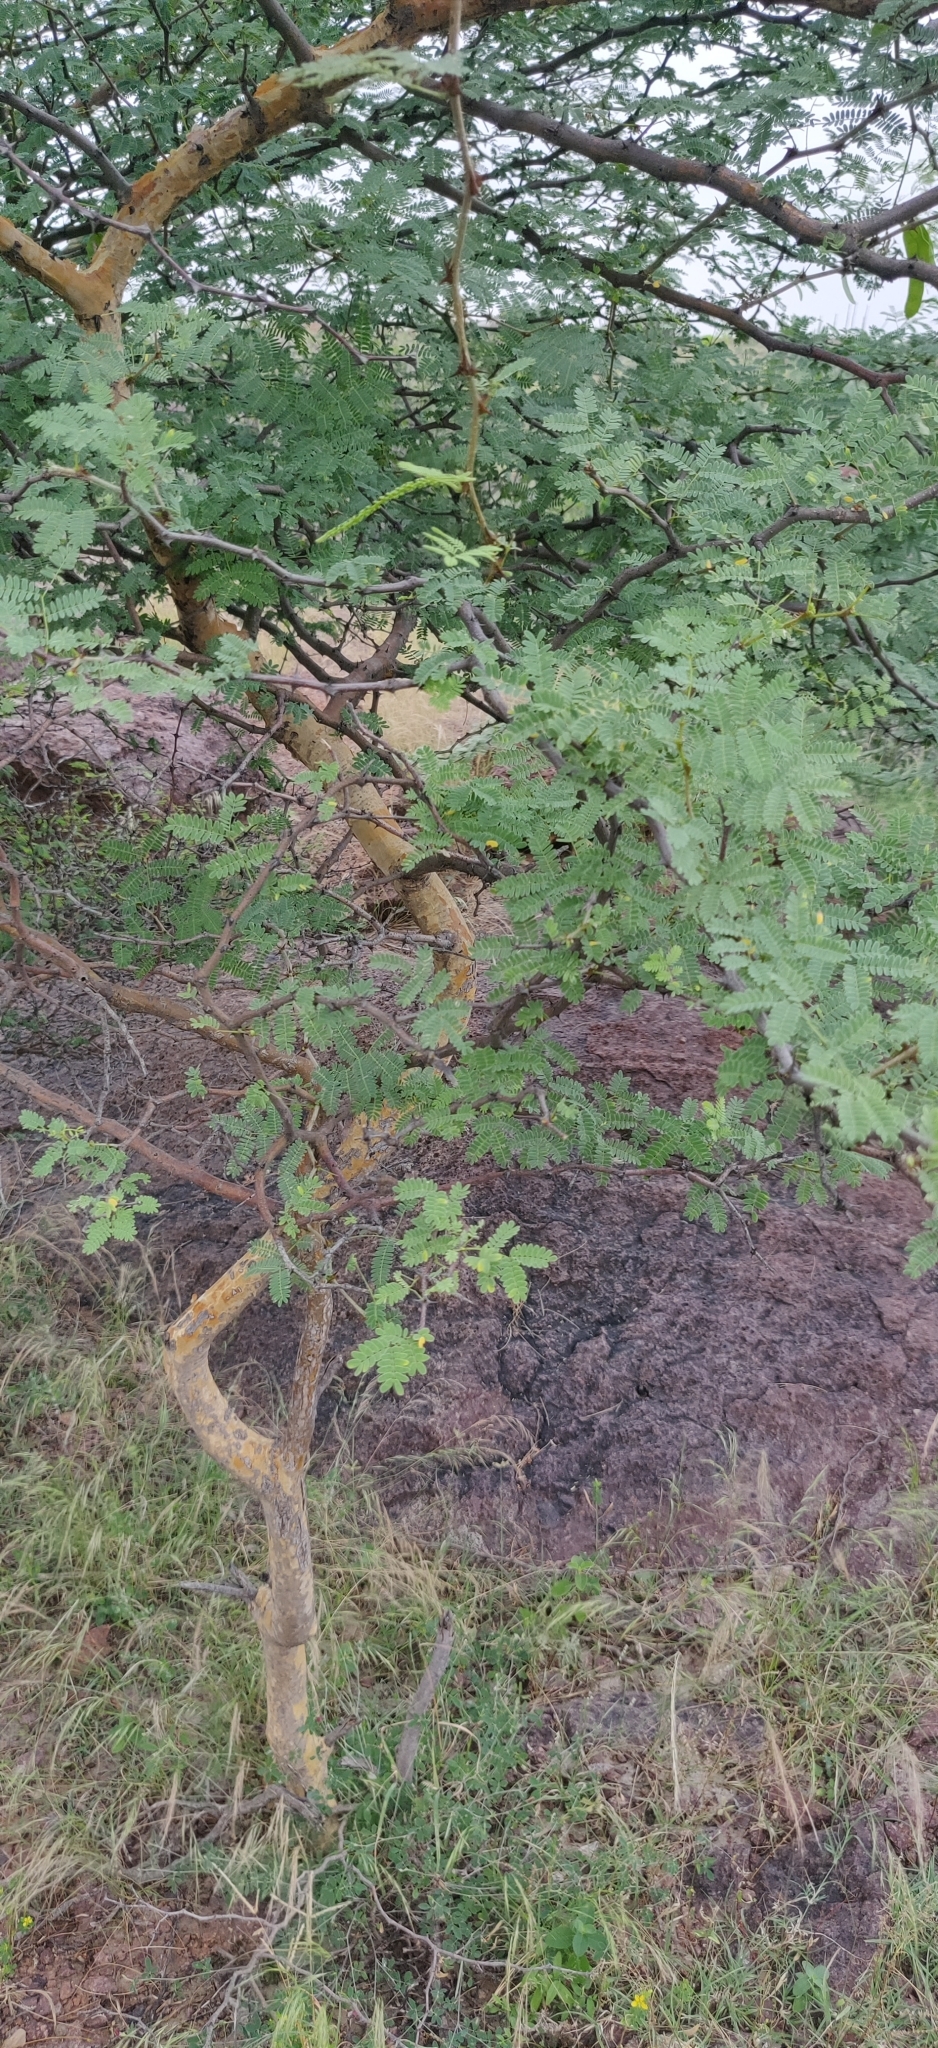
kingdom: Plantae
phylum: Tracheophyta
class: Magnoliopsida
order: Fabales
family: Fabaceae
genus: Senegalia
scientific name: Senegalia senegal
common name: Senegal-gum
